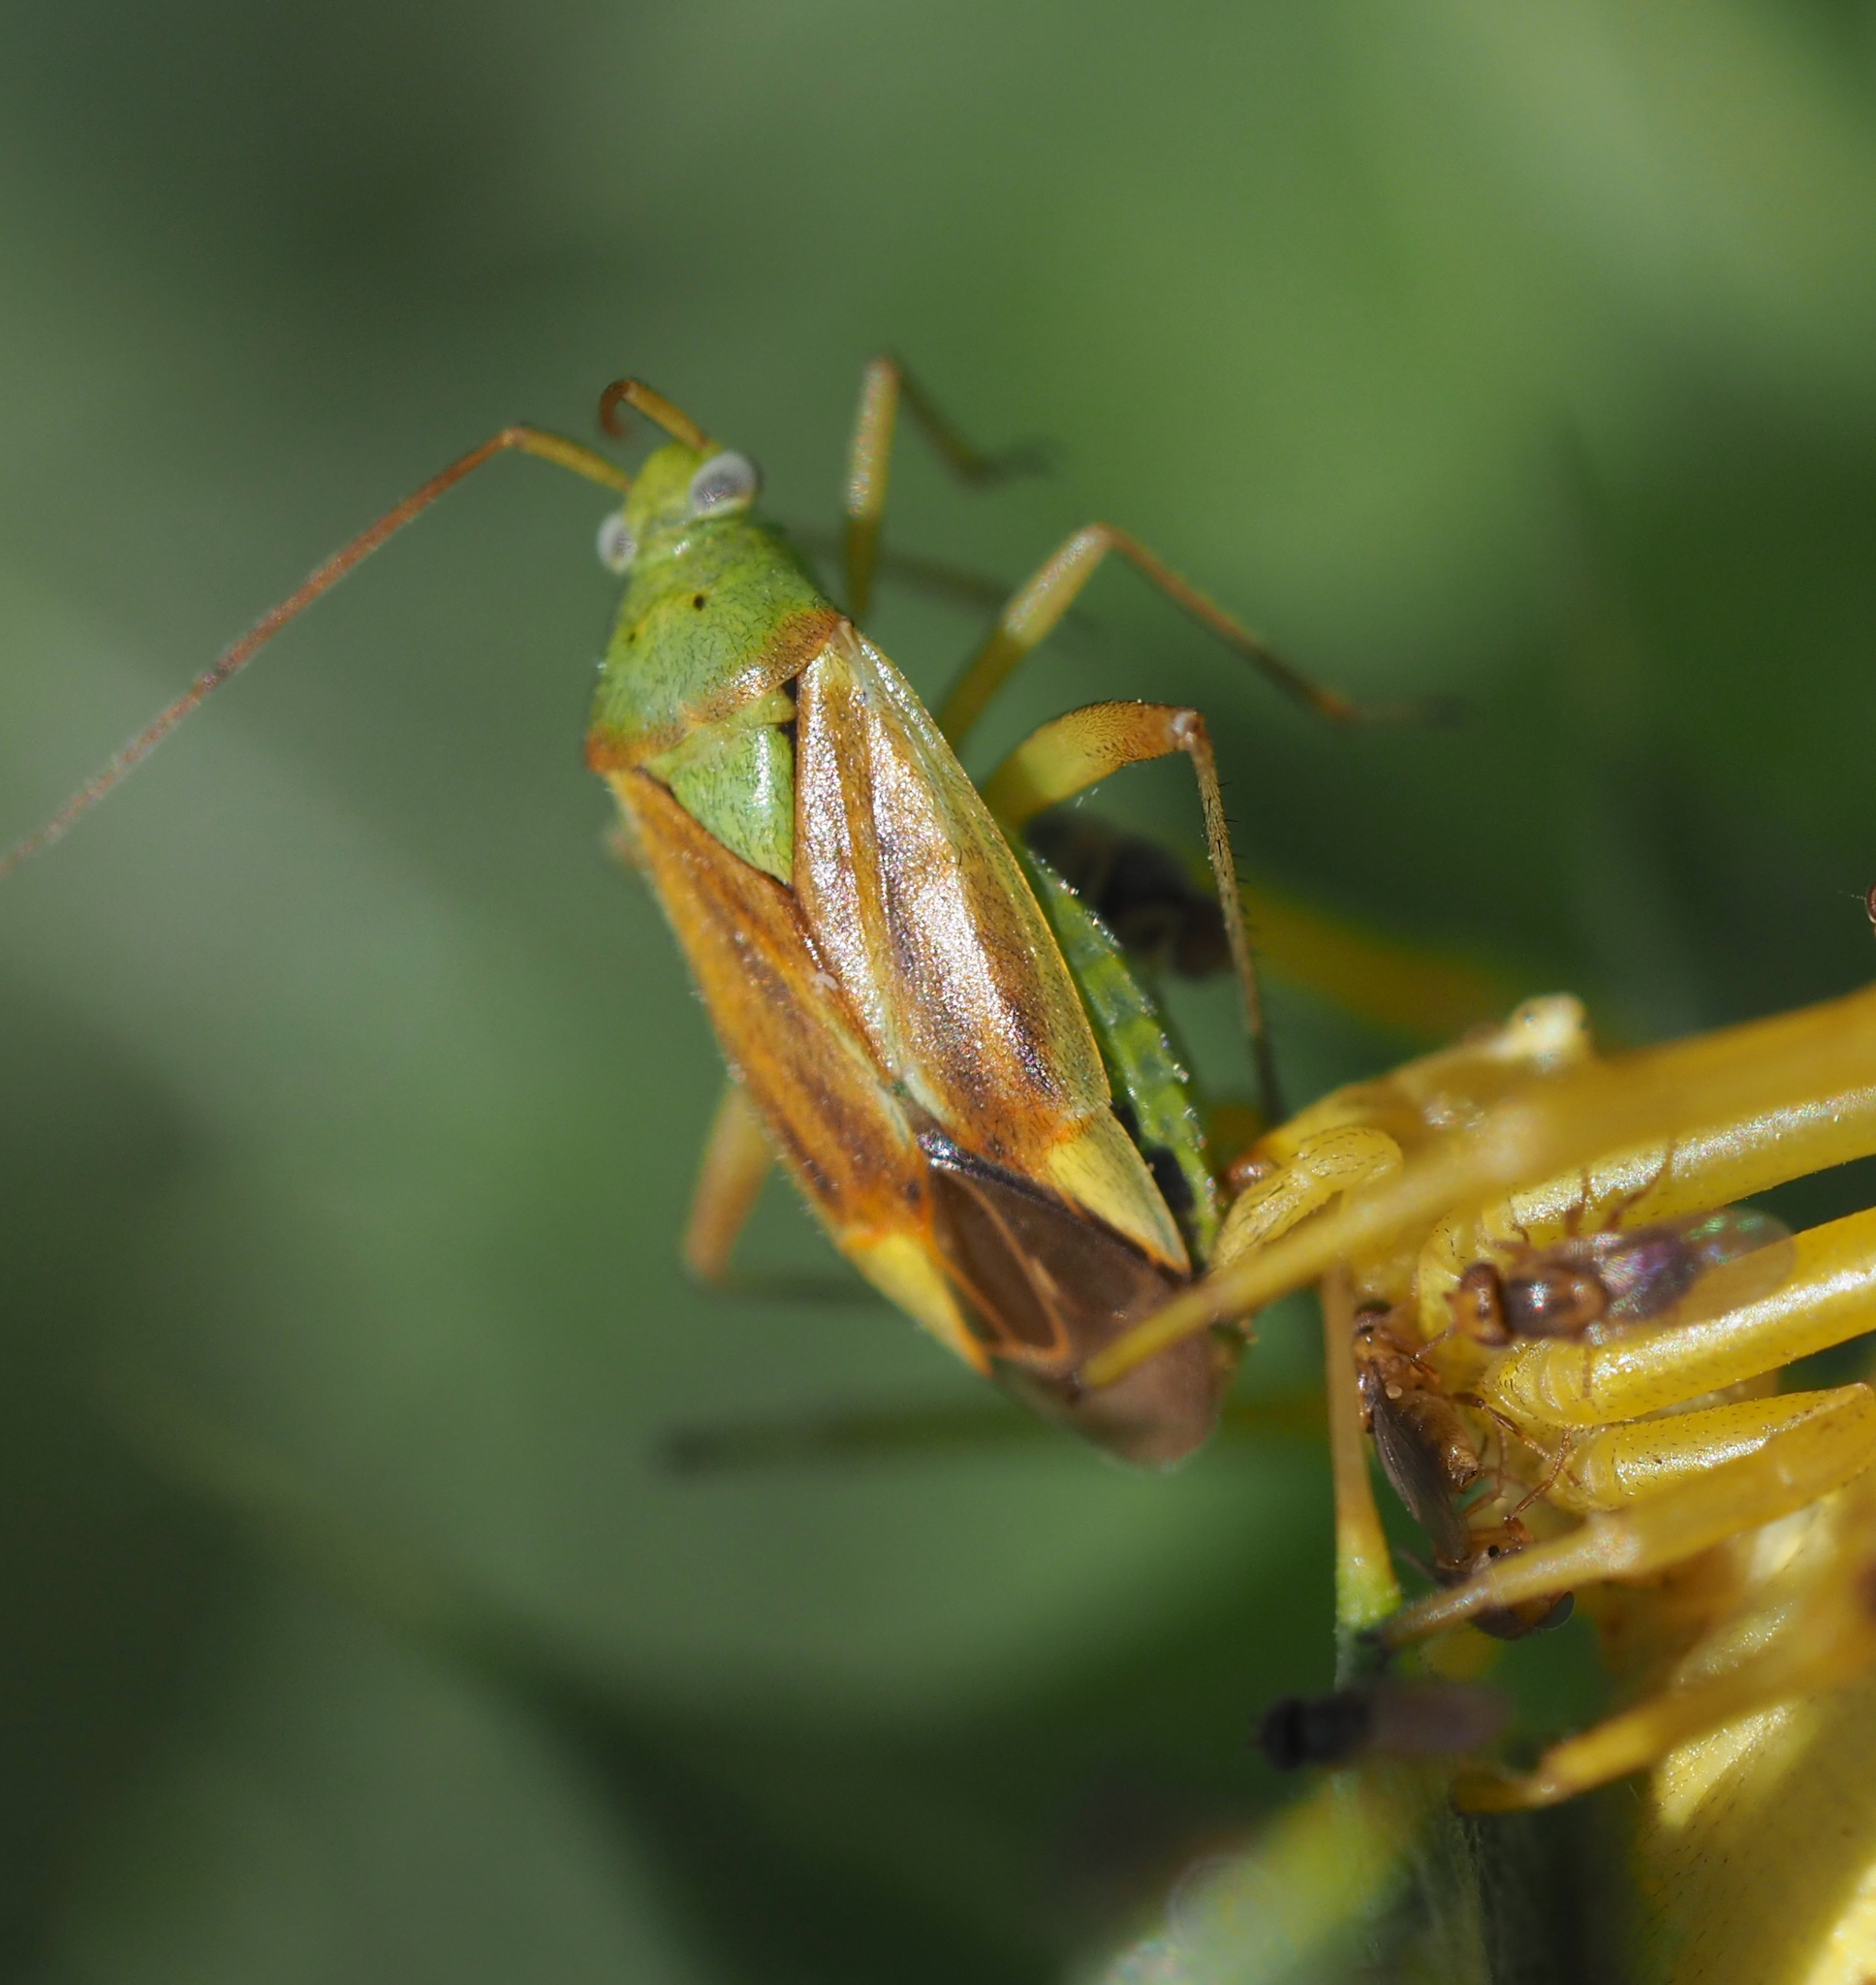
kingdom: Animalia
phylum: Arthropoda
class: Insecta
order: Hemiptera
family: Miridae
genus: Closterotomus
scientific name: Closterotomus norvegicus
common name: Plant bug
